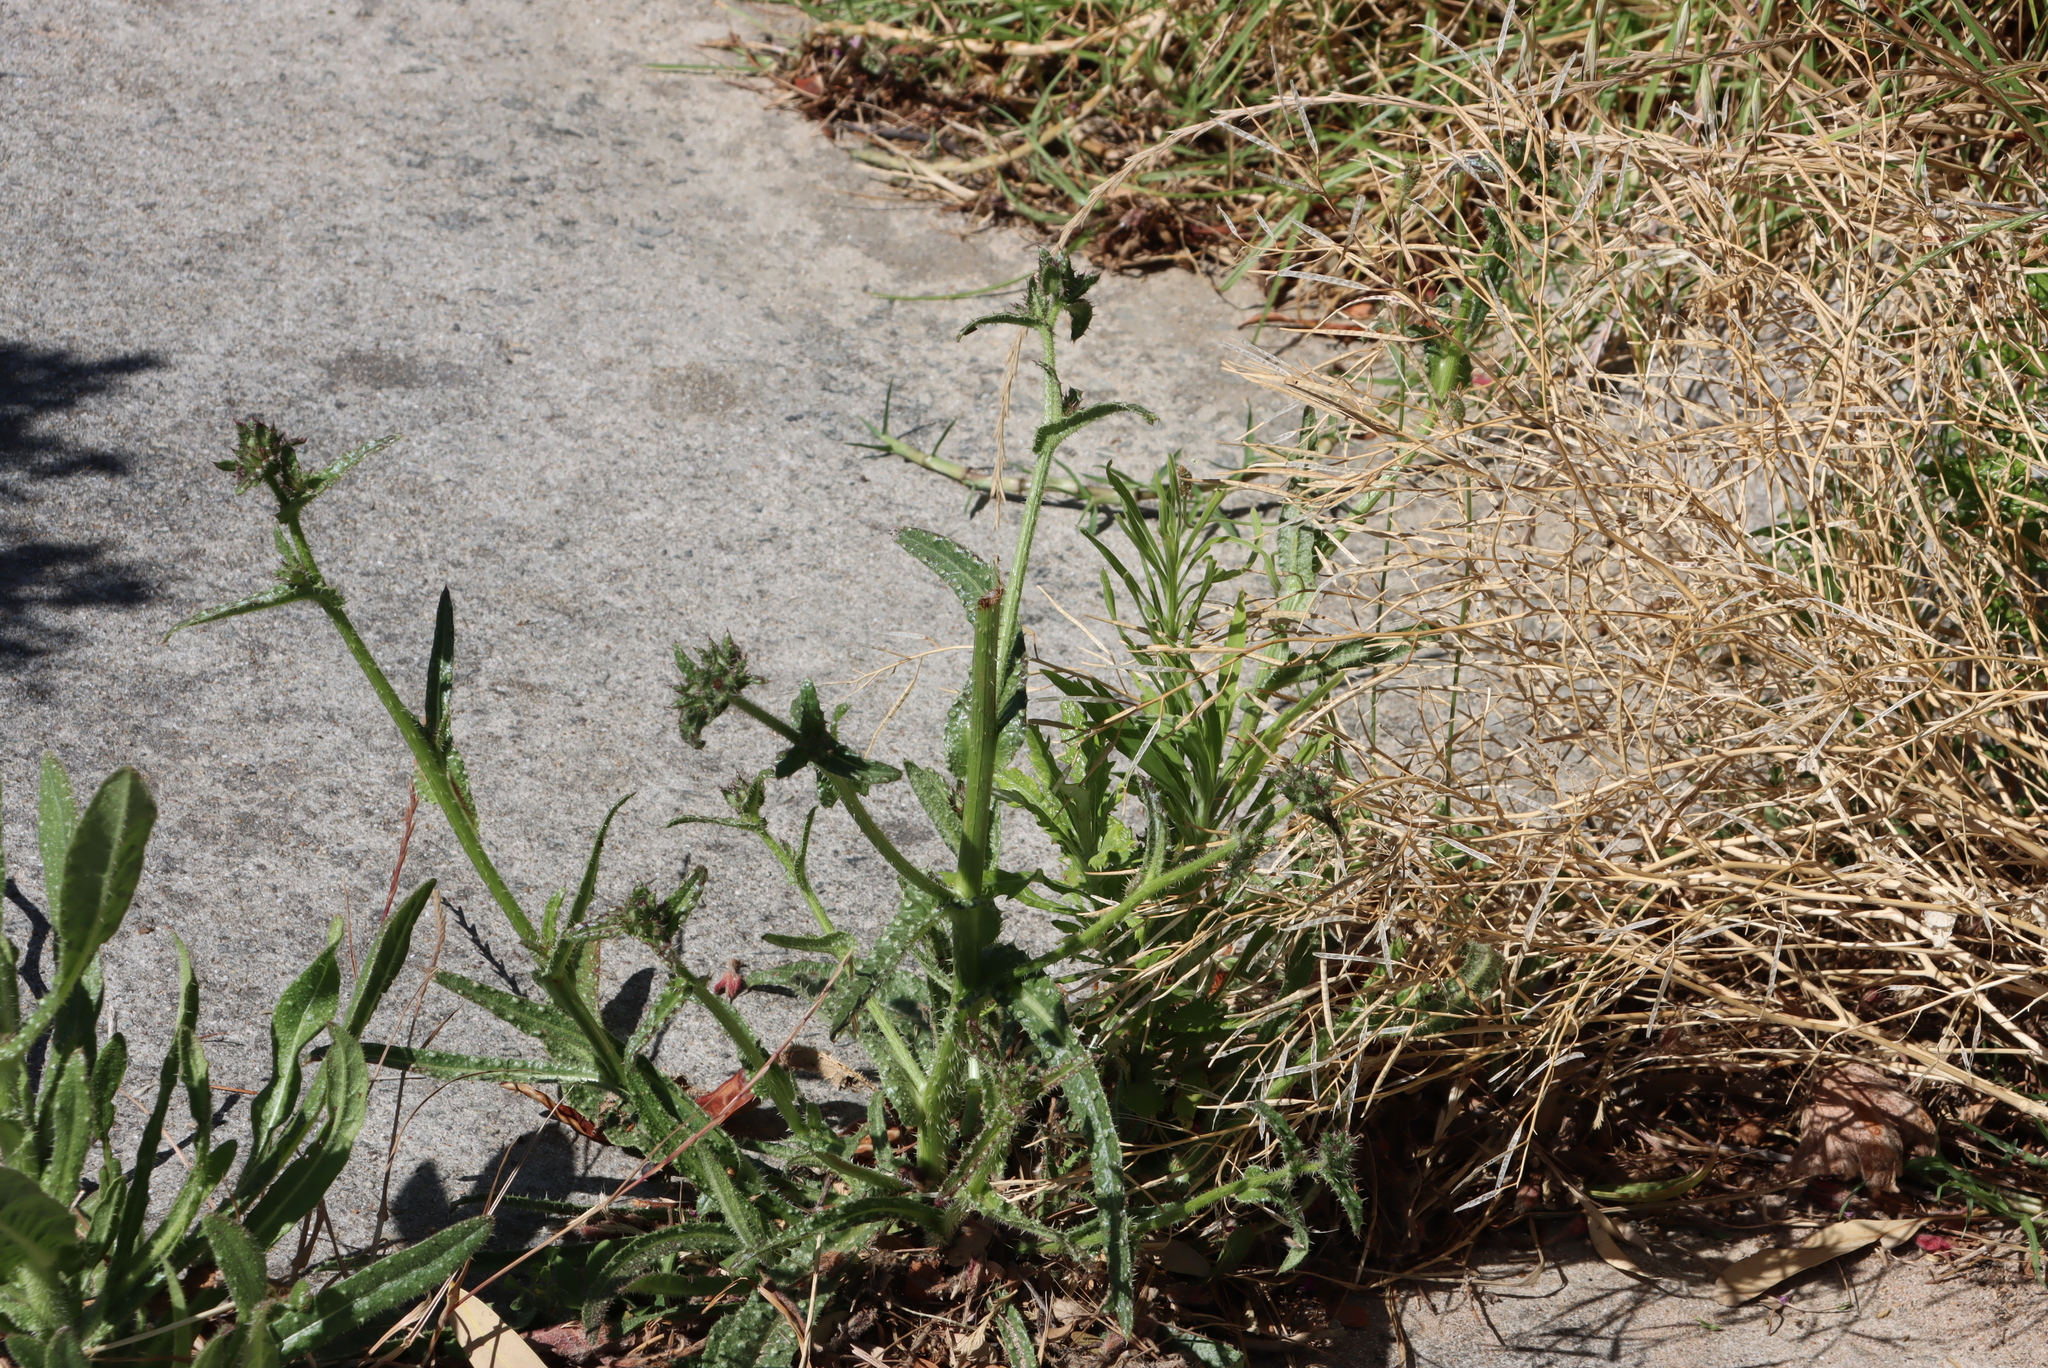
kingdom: Plantae
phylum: Tracheophyta
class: Magnoliopsida
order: Asterales
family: Asteraceae
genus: Helminthotheca
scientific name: Helminthotheca echioides
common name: Ox-tongue
